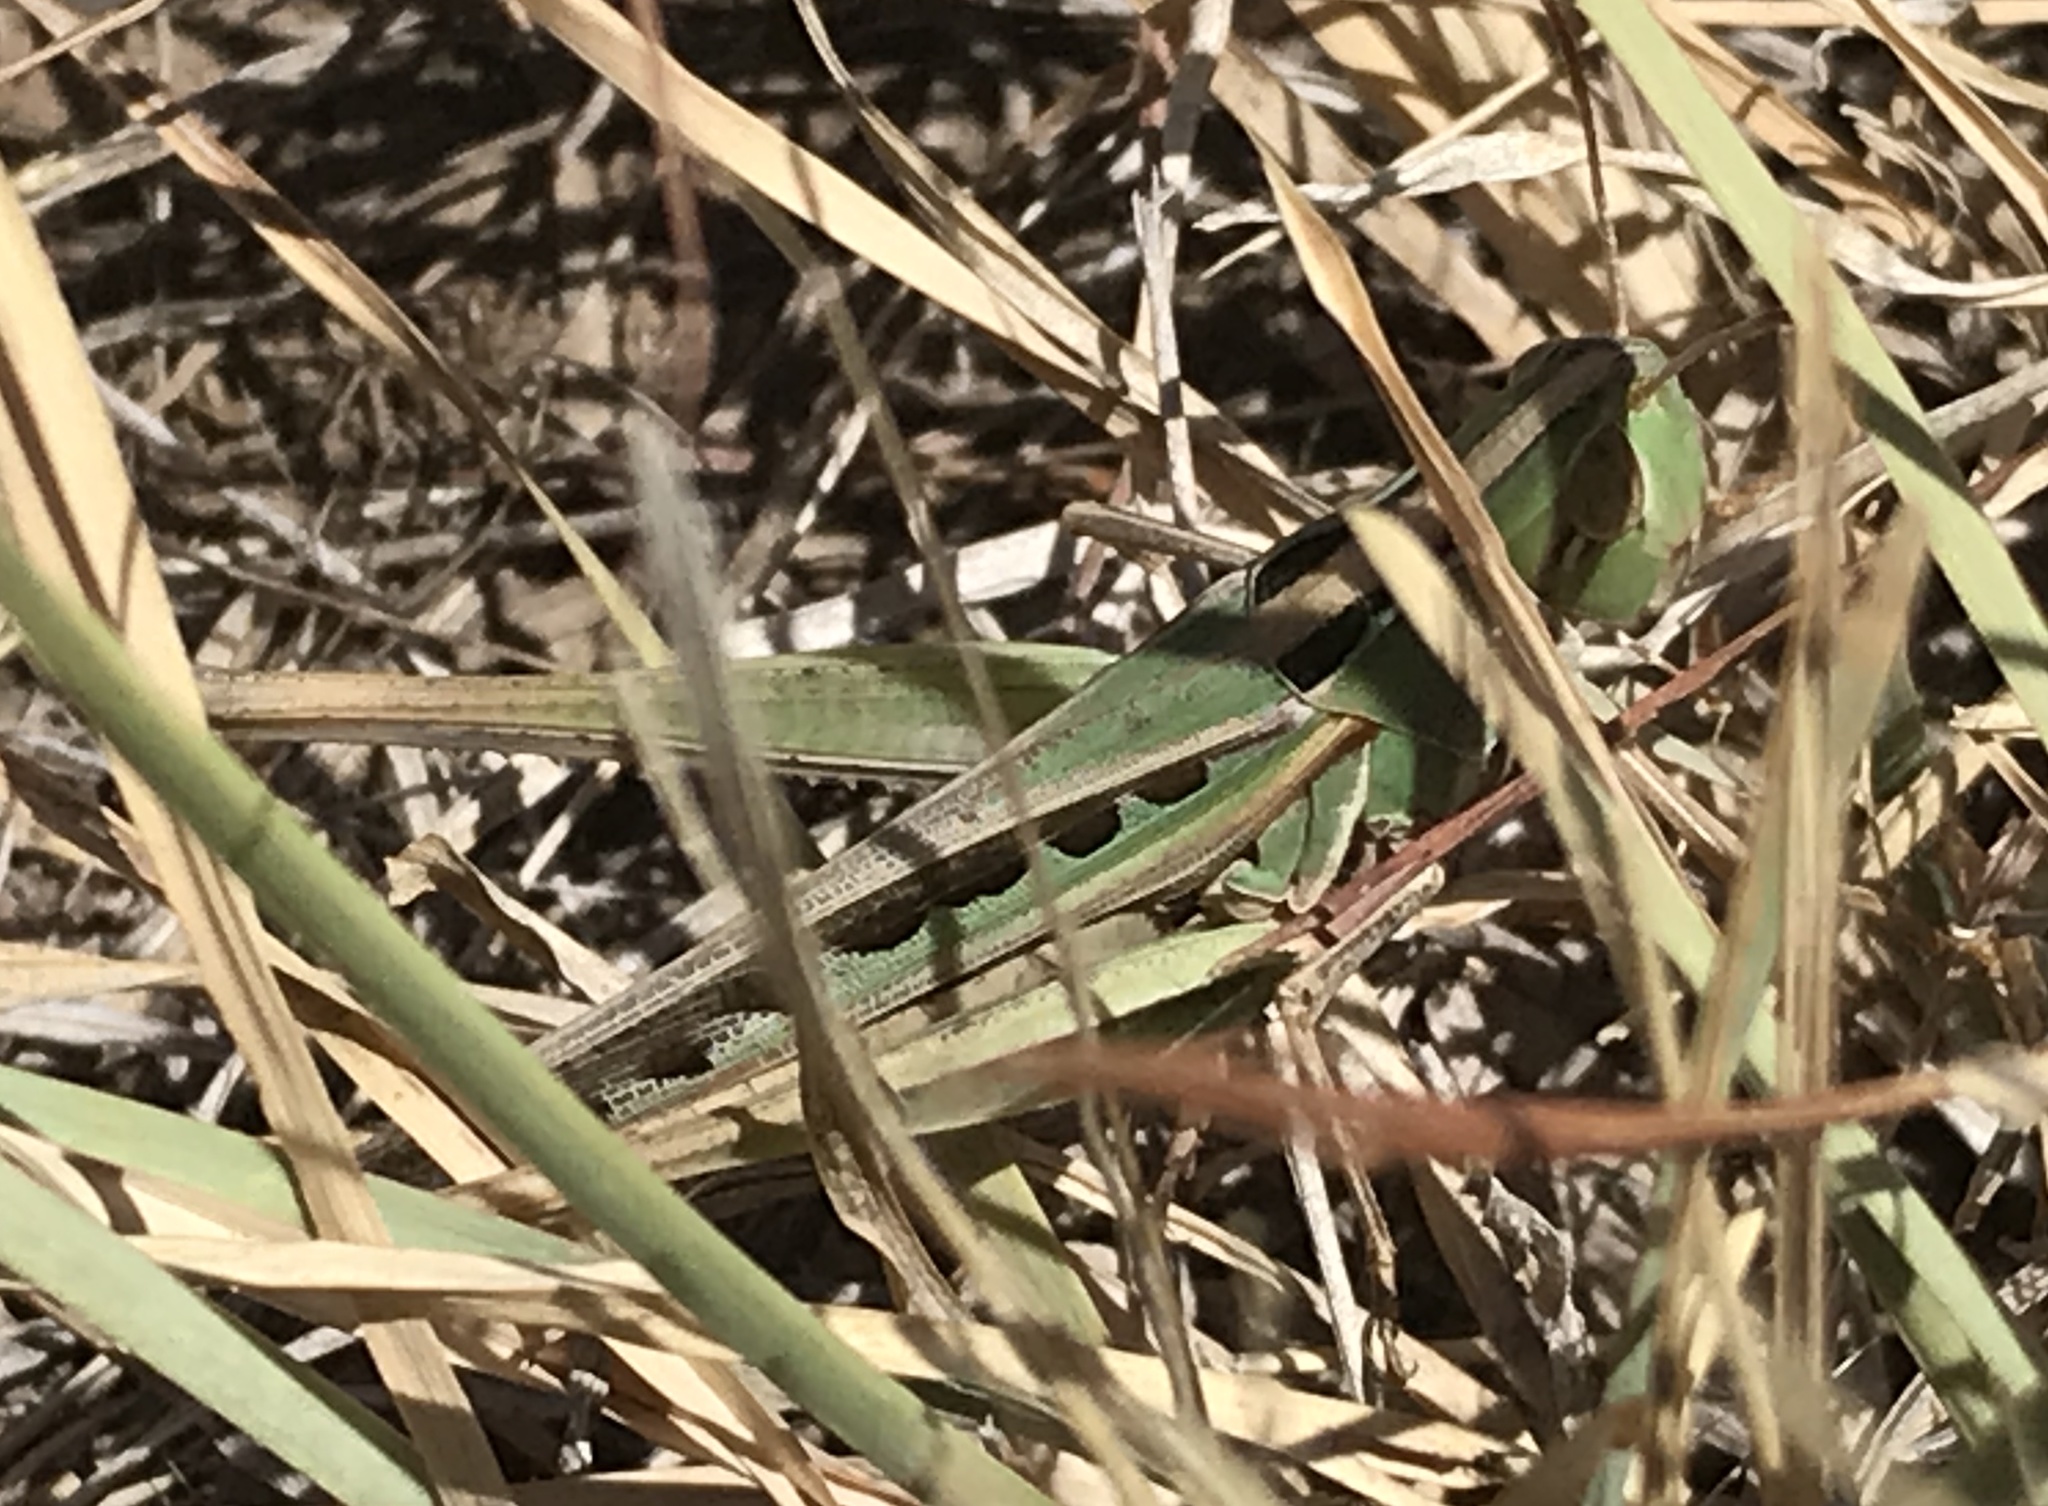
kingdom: Animalia
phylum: Arthropoda
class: Insecta
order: Orthoptera
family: Acrididae
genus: Syrbula
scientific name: Syrbula admirabilis
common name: Handsome grasshopper
